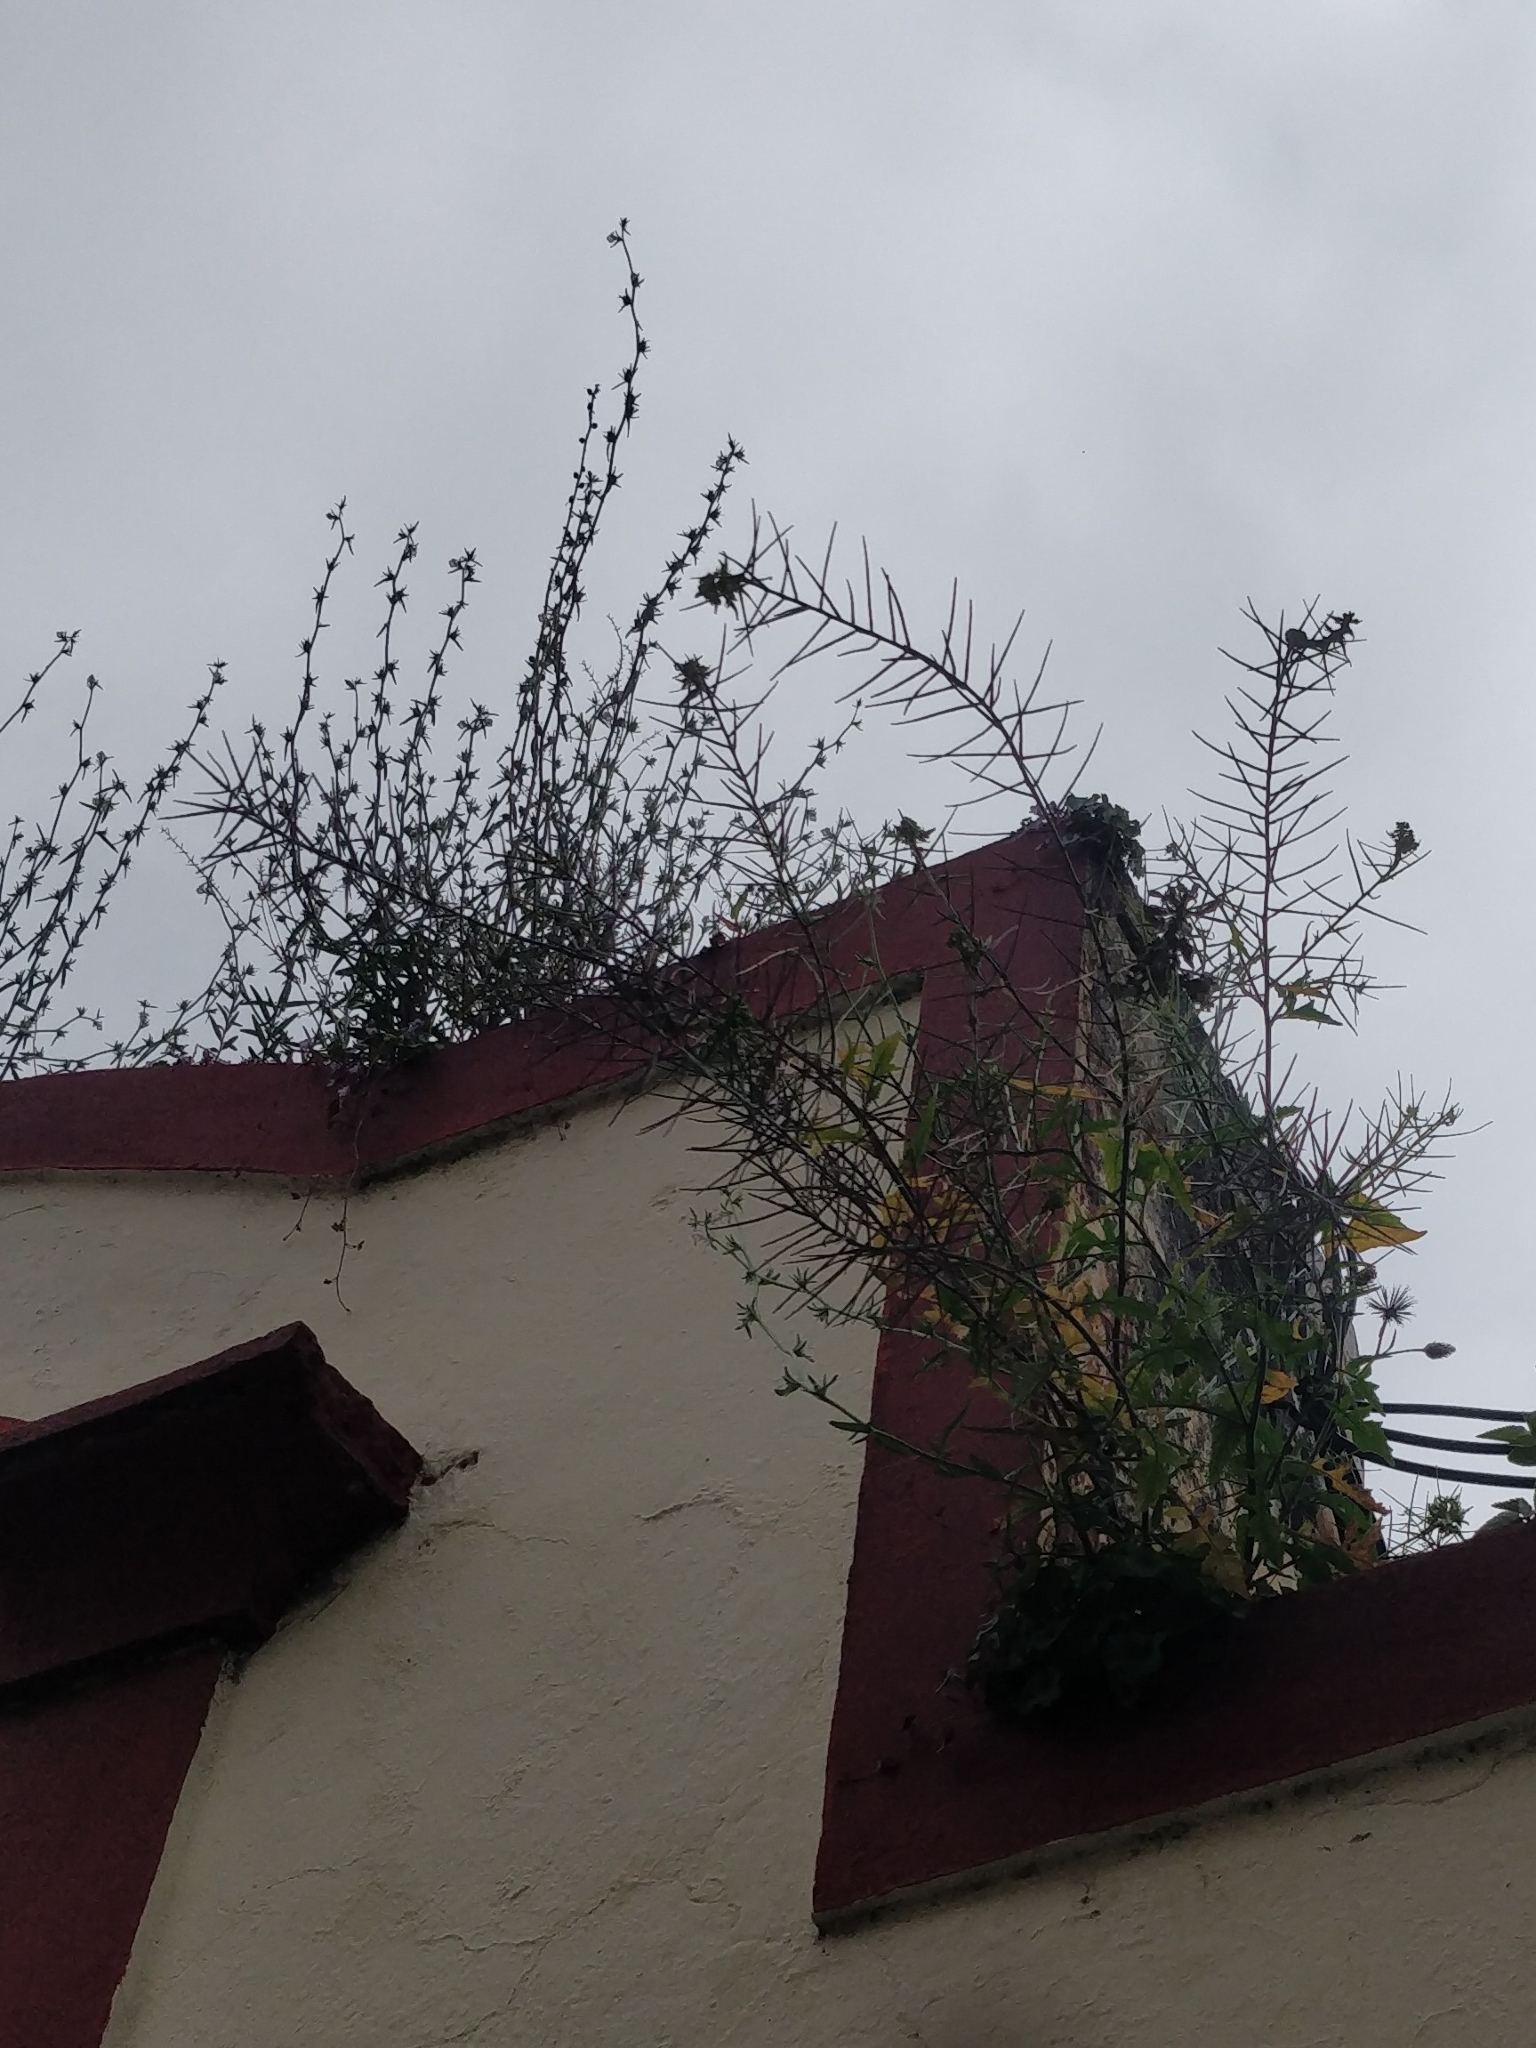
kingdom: Plantae
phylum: Tracheophyta
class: Magnoliopsida
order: Brassicales
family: Brassicaceae
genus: Sisymbrium
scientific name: Sisymbrium erysimoides
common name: French rocket
